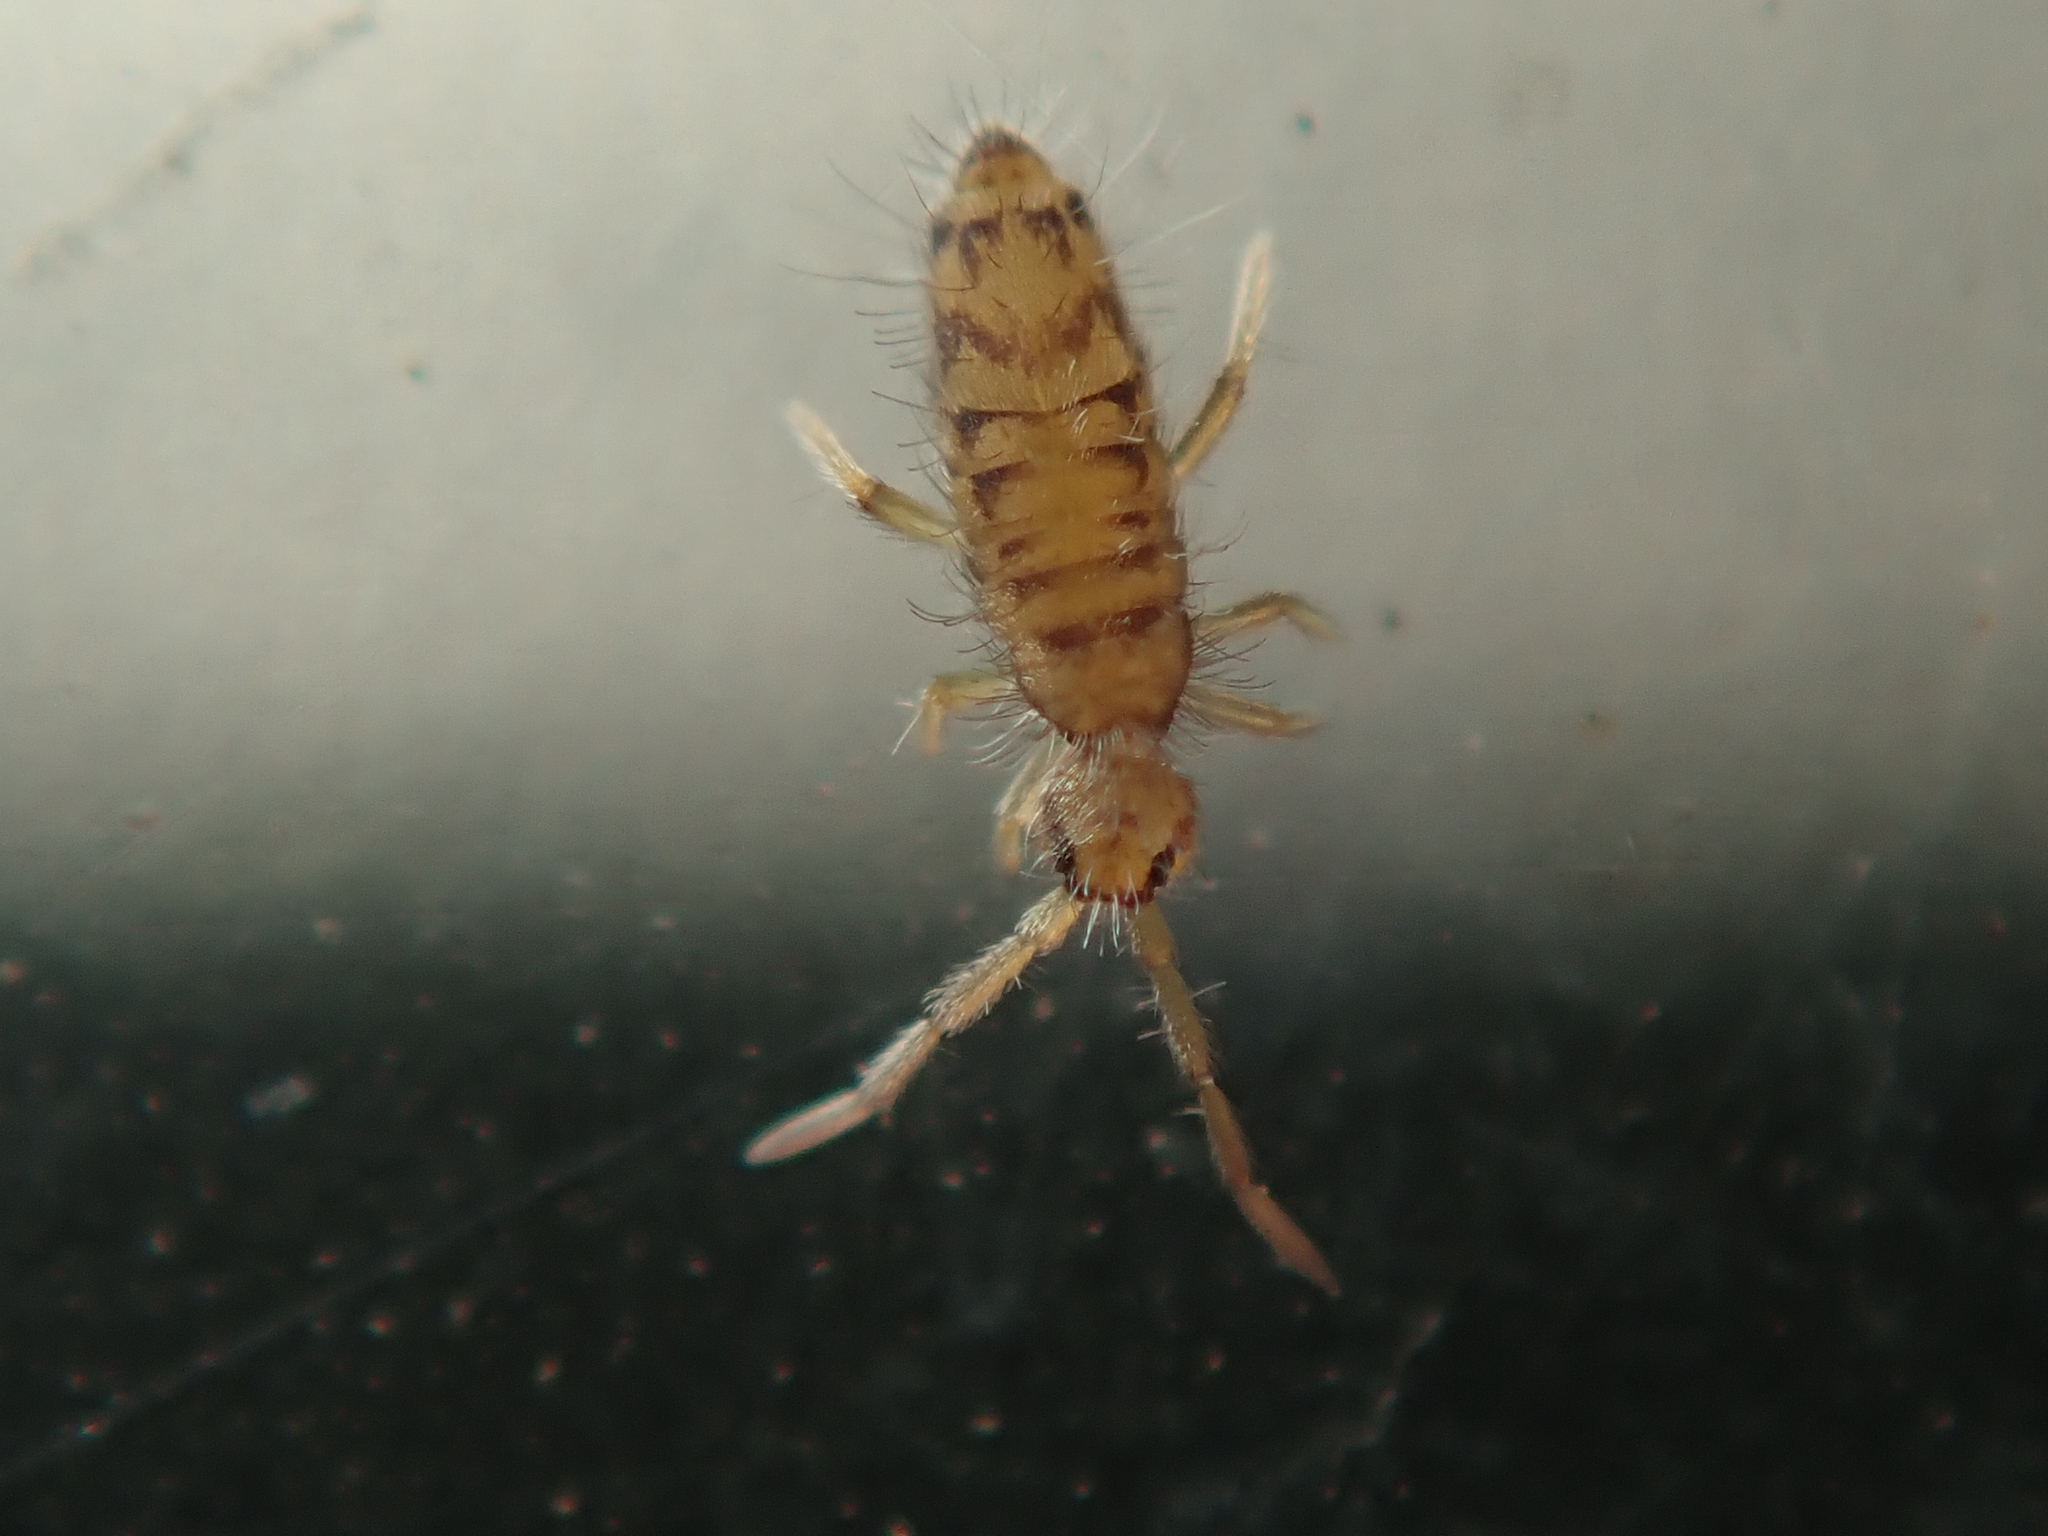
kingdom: Animalia
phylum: Arthropoda
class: Collembola
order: Entomobryomorpha
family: Entomobryidae
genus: Entomobrya
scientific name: Entomobrya multifasciata
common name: Springtail
